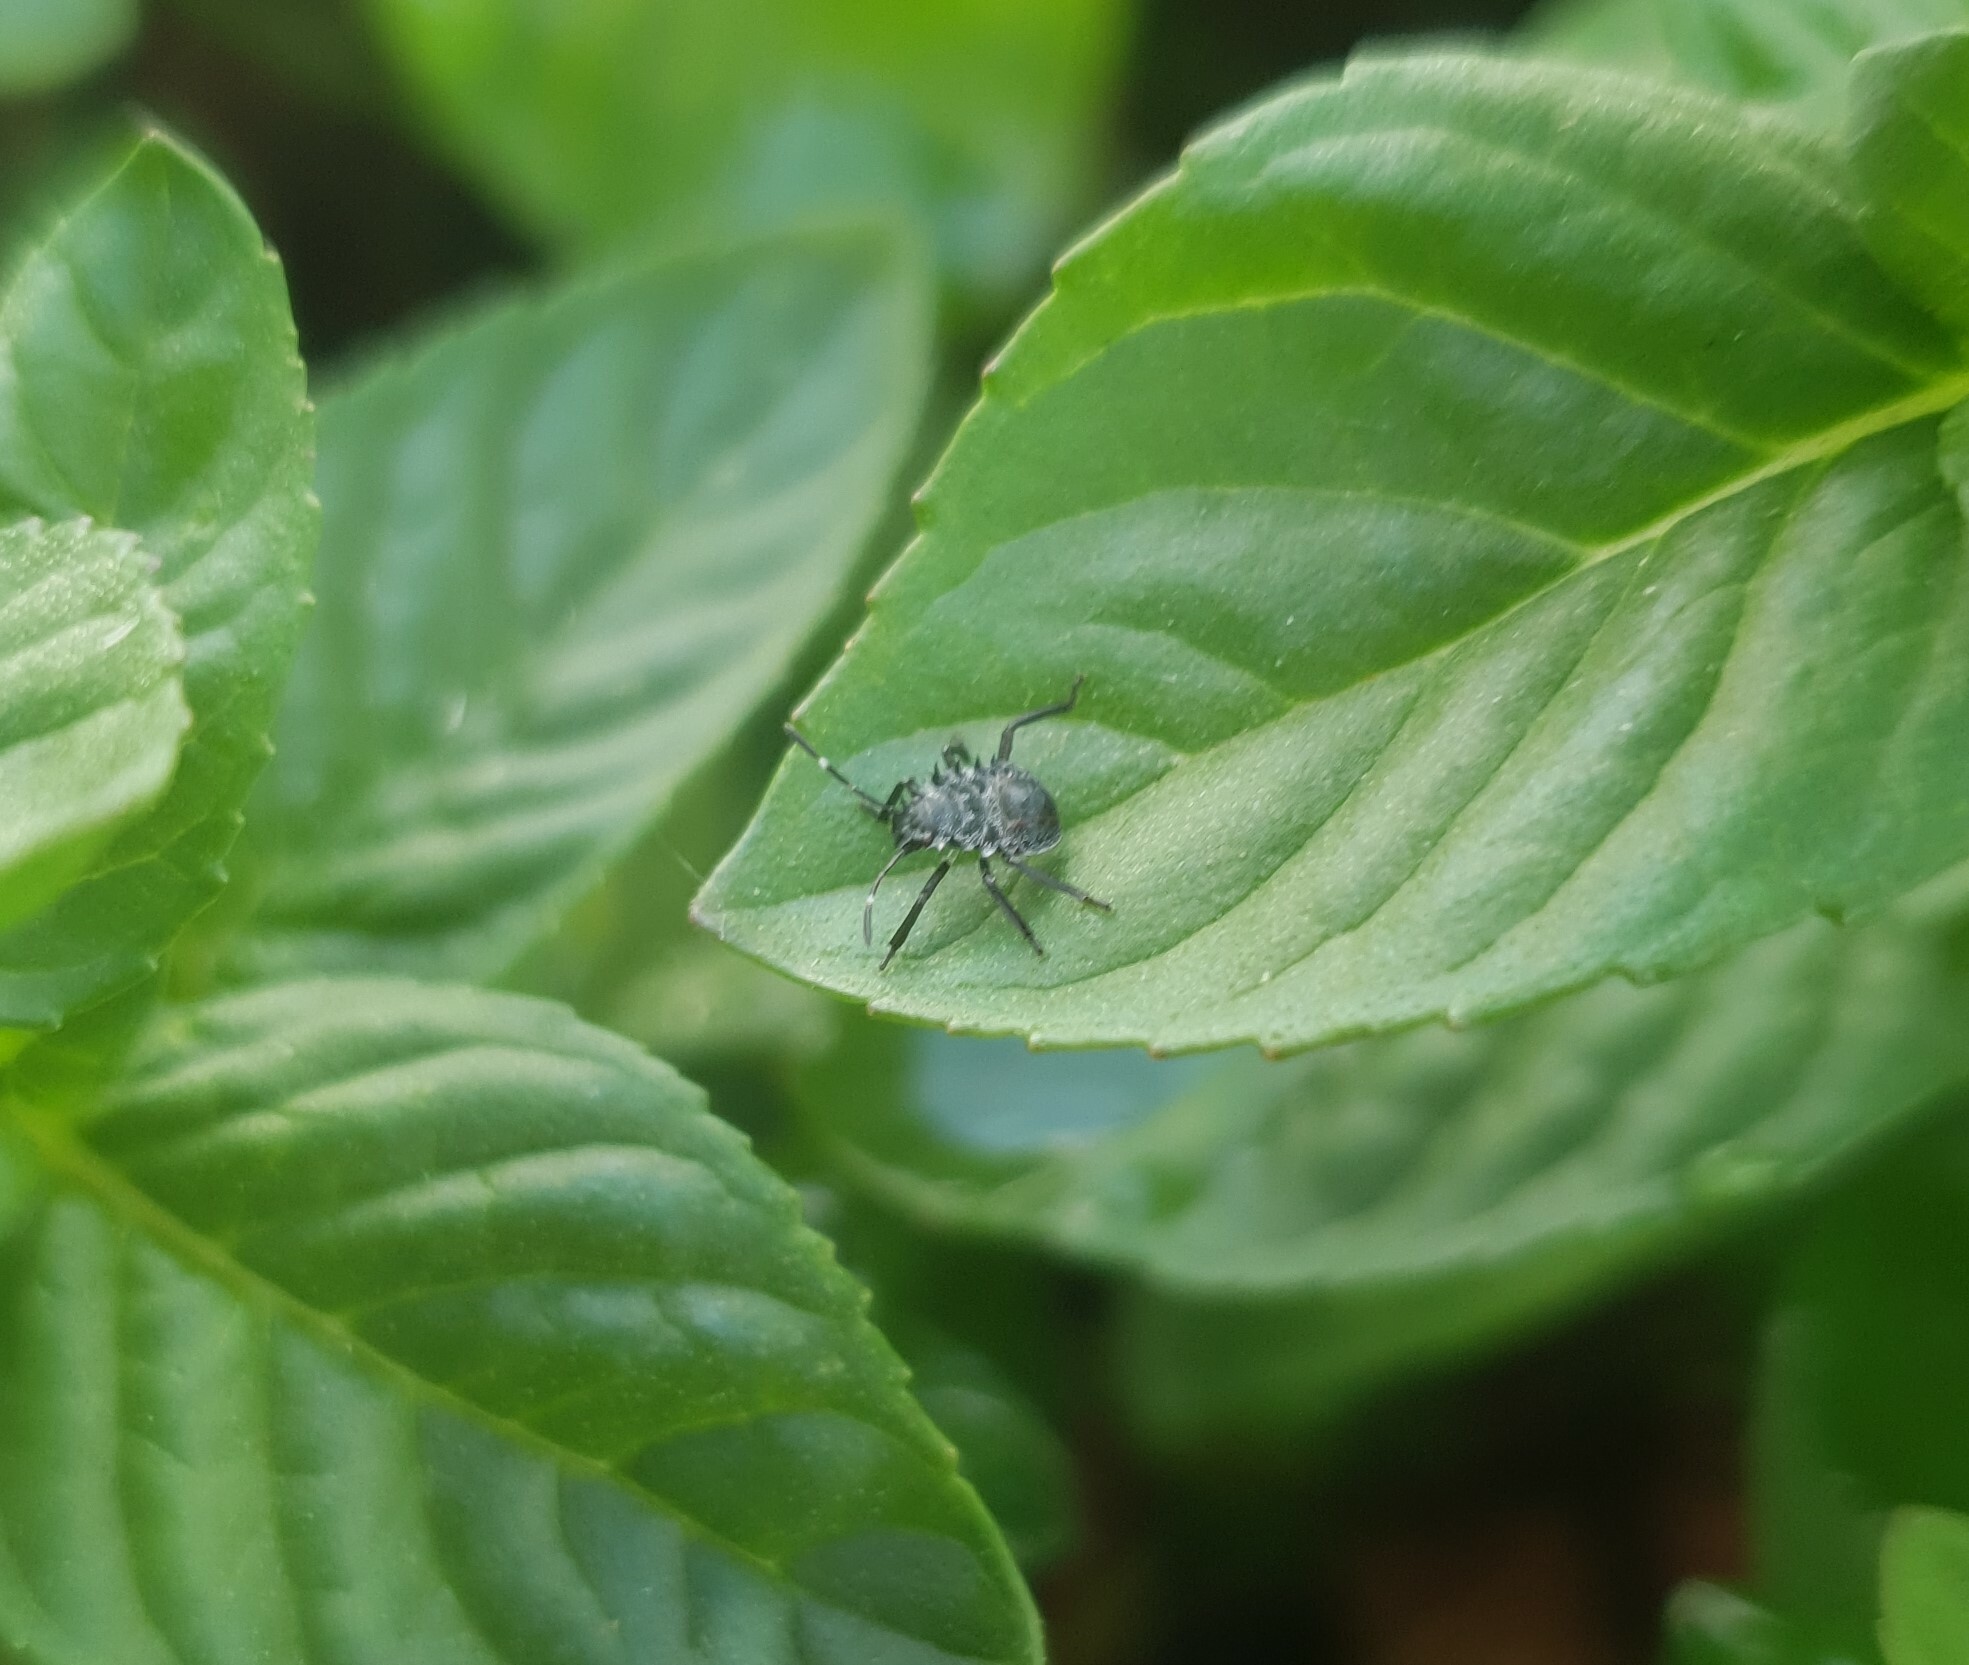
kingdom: Animalia
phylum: Arthropoda
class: Insecta
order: Hemiptera
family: Pentatomidae
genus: Halyomorpha
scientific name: Halyomorpha halys
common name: Brown marmorated stink bug
